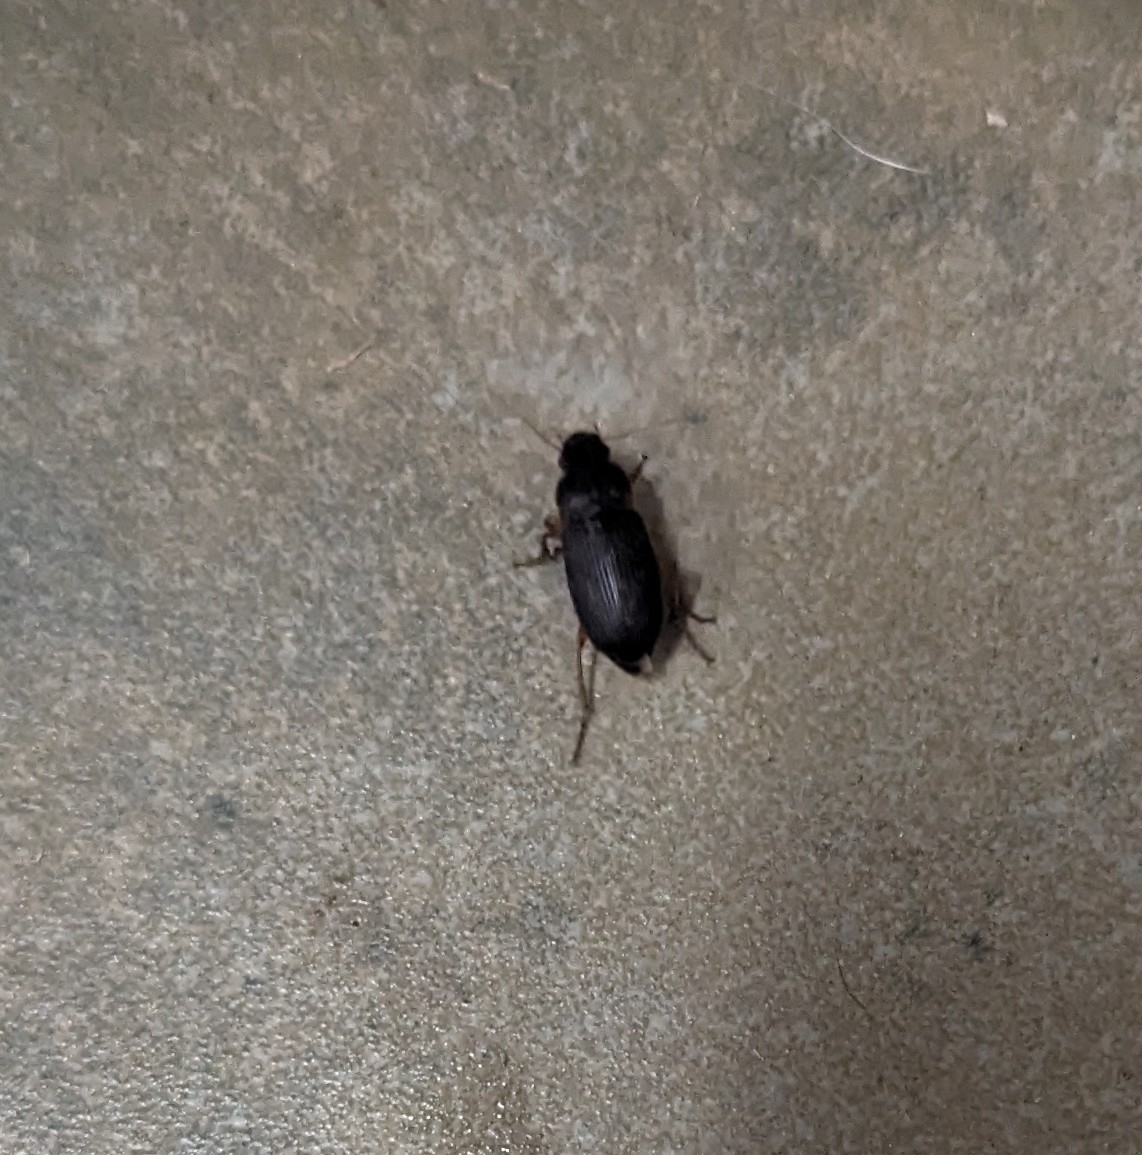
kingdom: Animalia
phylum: Arthropoda
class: Insecta
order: Coleoptera
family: Carabidae
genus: Harpalus
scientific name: Harpalus pensylvanicus
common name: Pennsylvania dingy ground beetle
